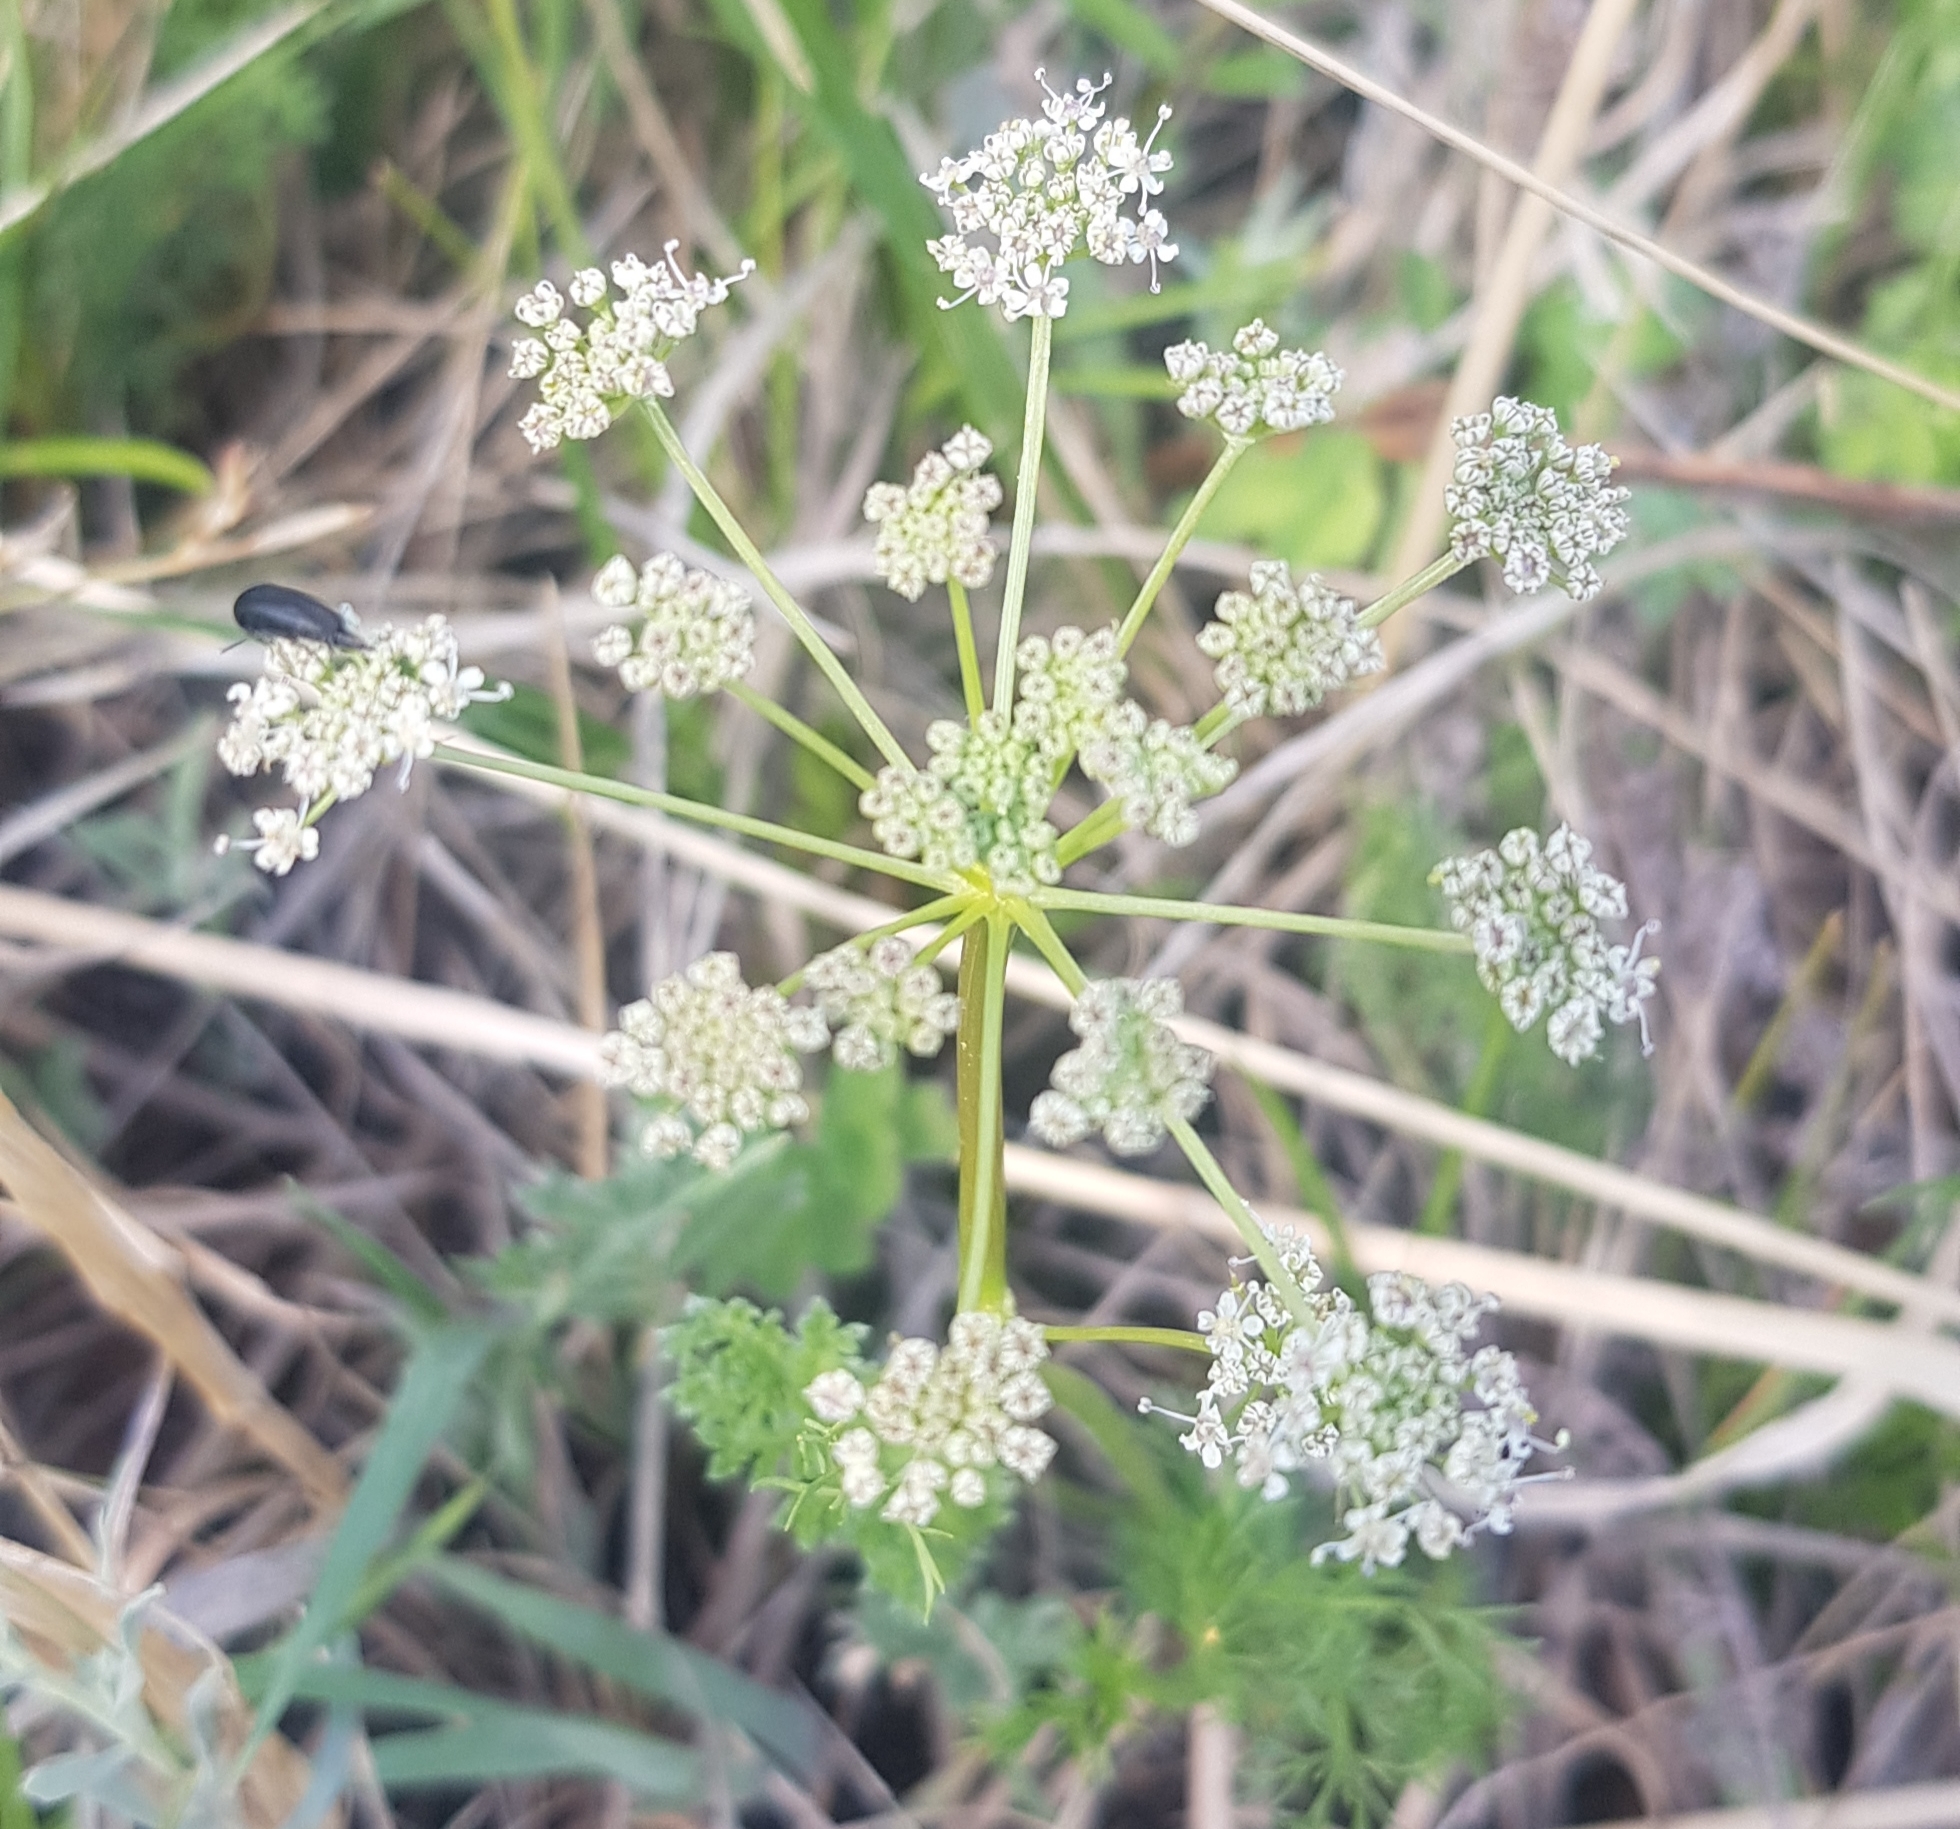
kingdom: Plantae
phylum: Tracheophyta
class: Magnoliopsida
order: Apiales
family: Apiaceae
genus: Carum
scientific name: Carum carvi
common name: Caraway
